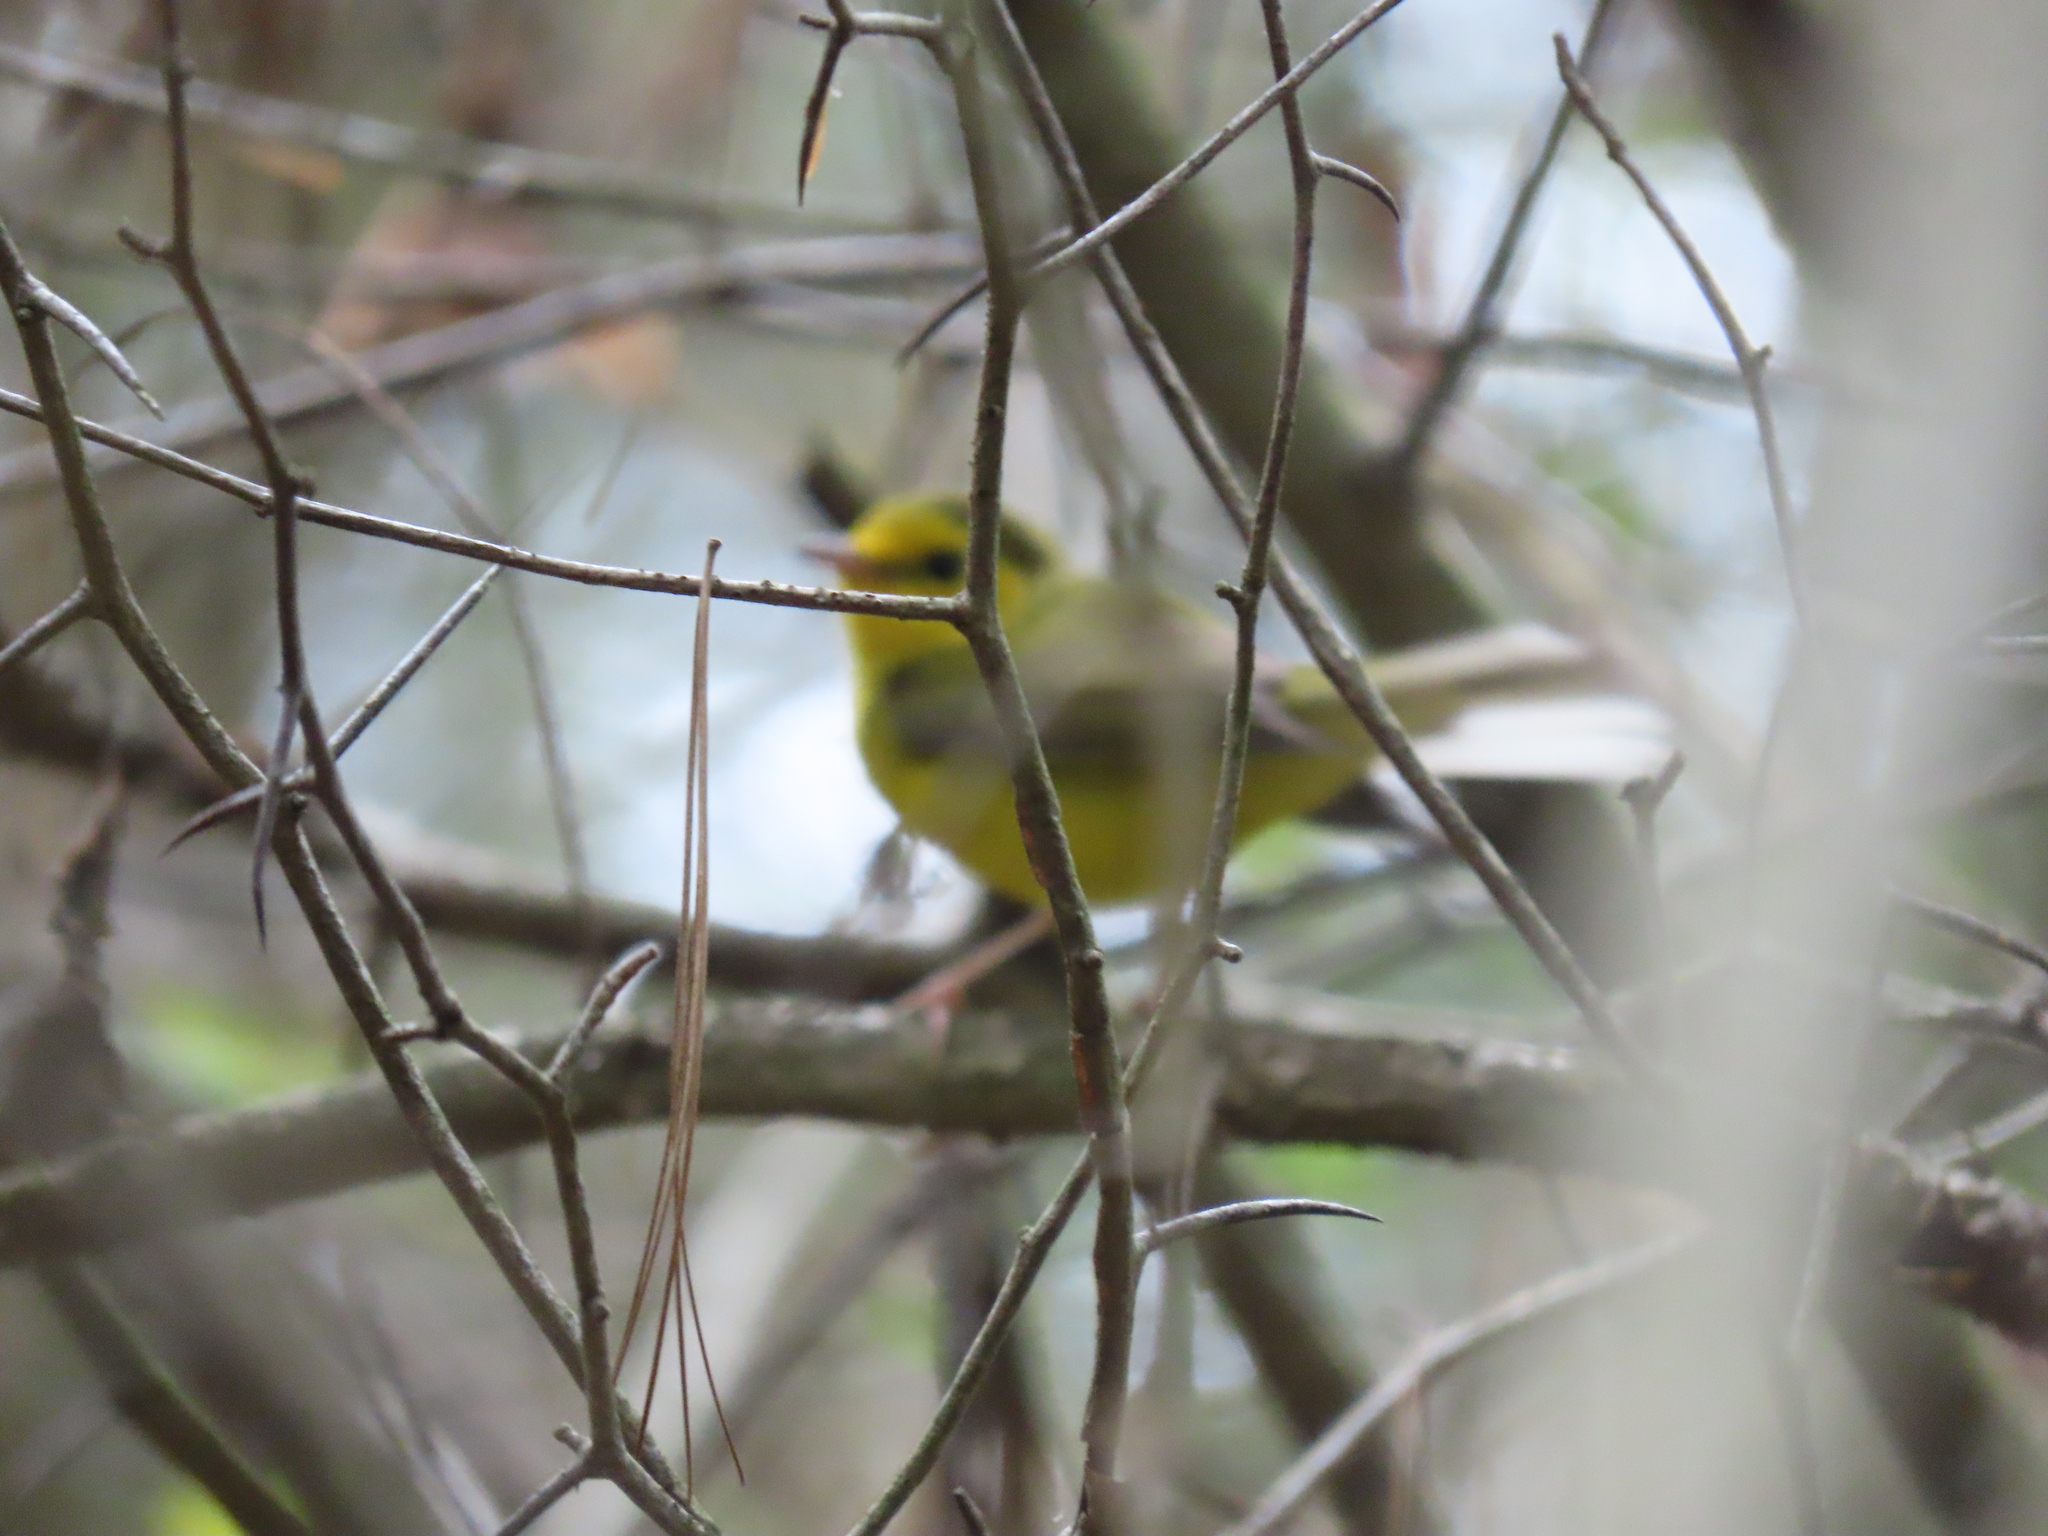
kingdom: Animalia
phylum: Chordata
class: Aves
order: Passeriformes
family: Parulidae
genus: Setophaga
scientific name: Setophaga citrina
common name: Hooded warbler
